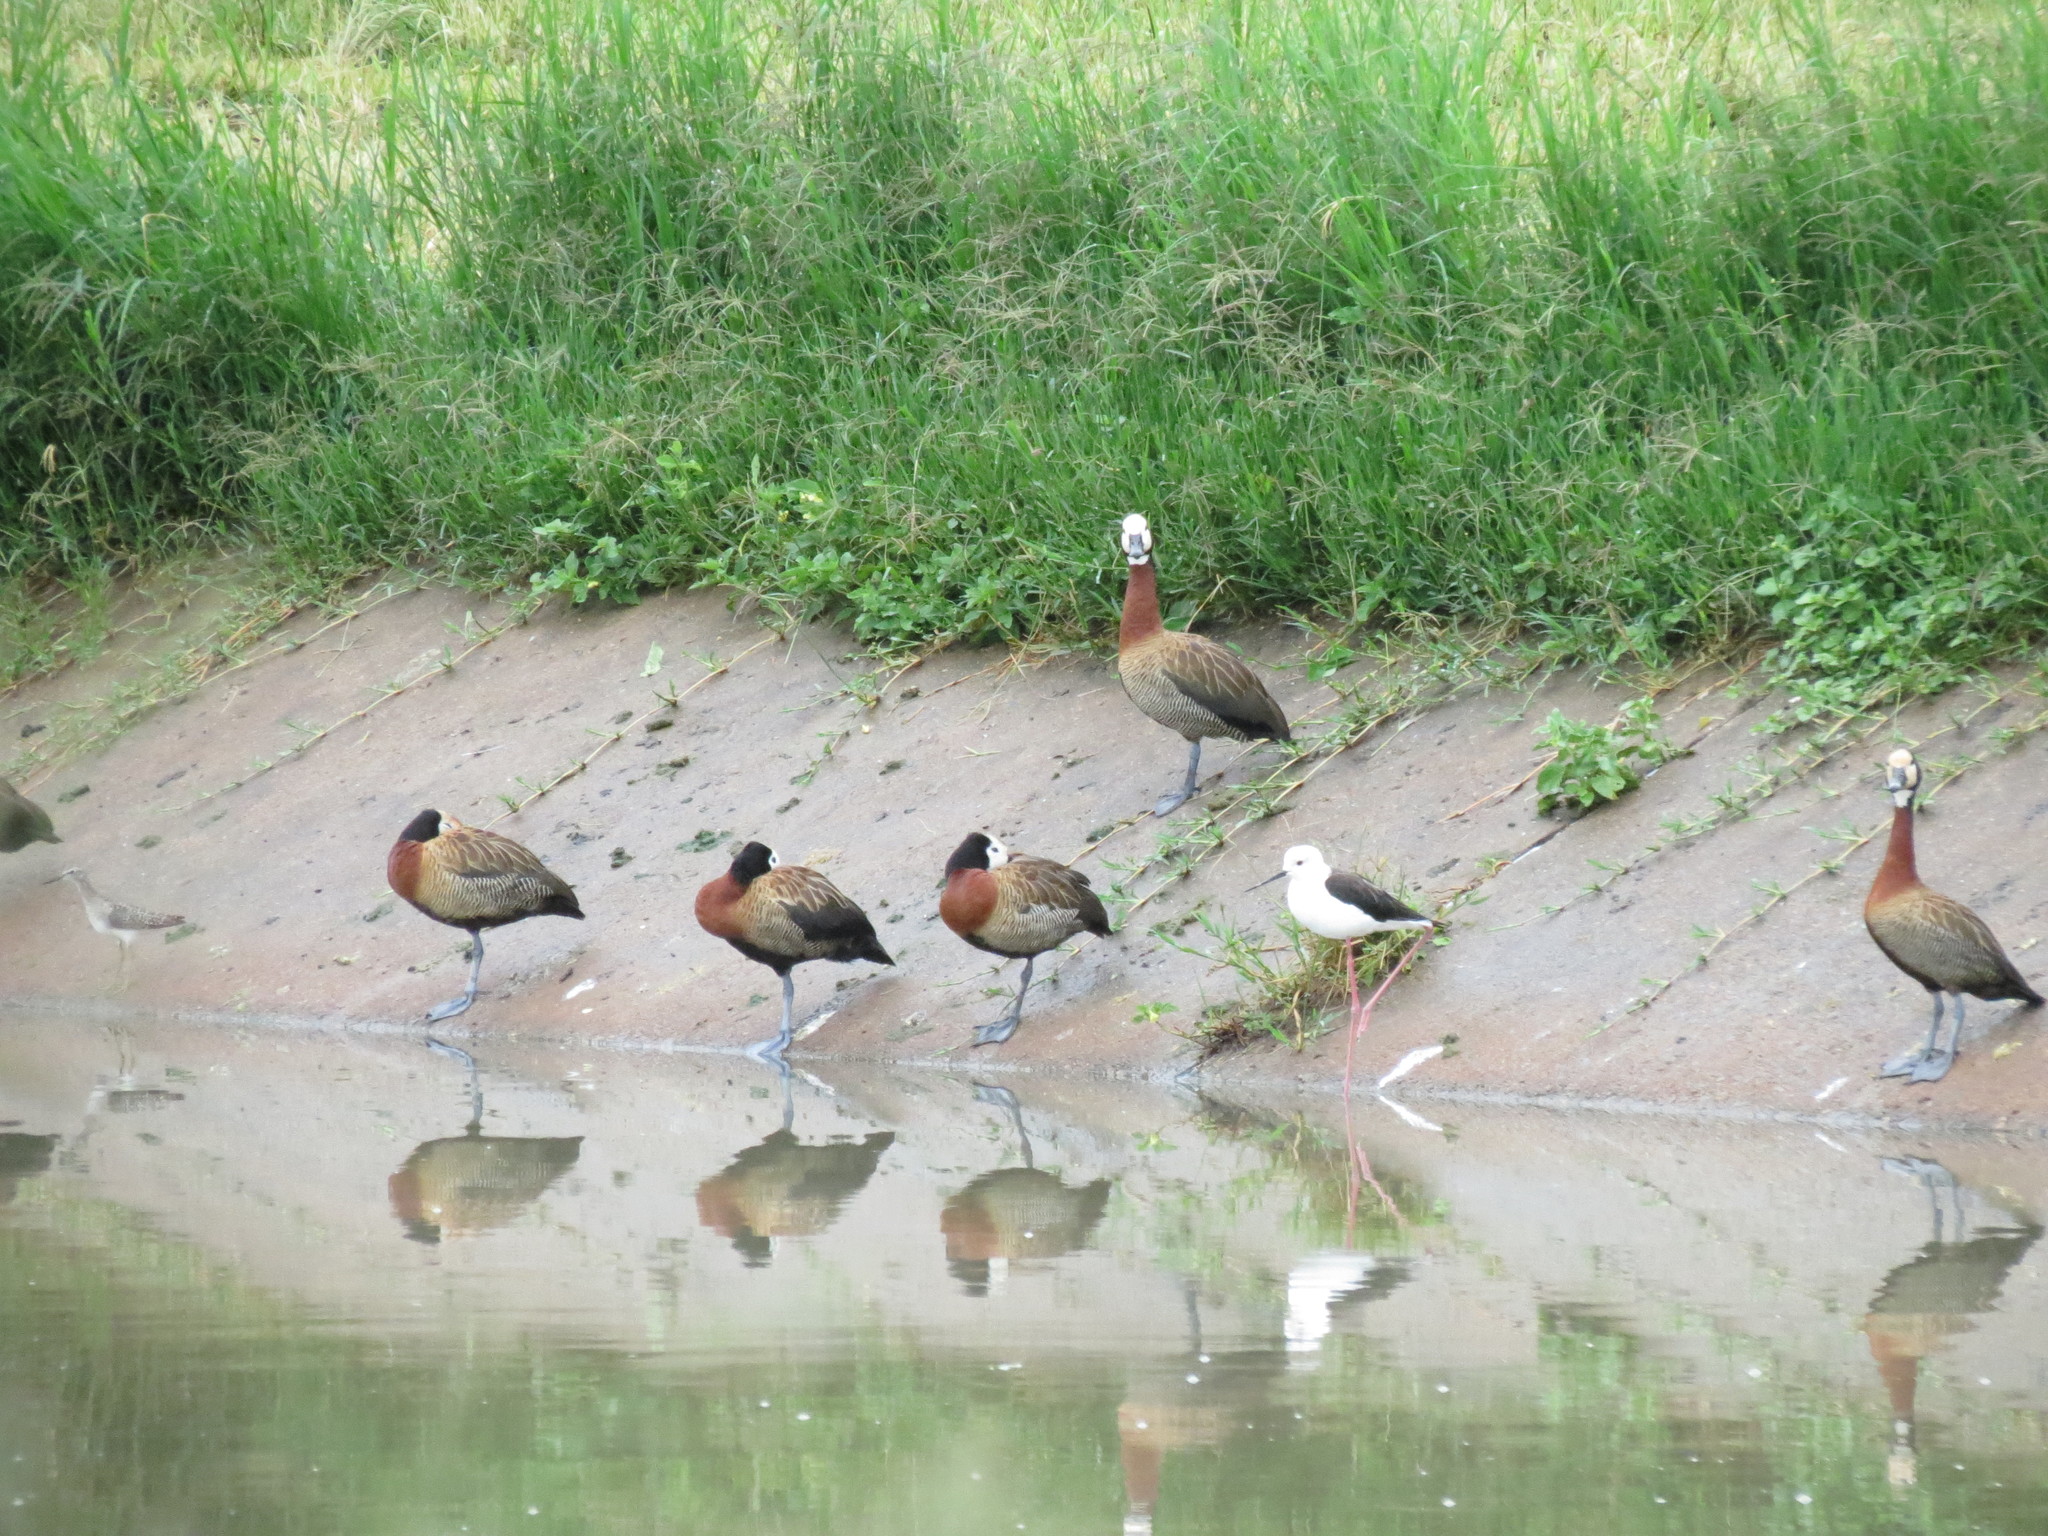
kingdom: Animalia
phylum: Chordata
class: Aves
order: Anseriformes
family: Anatidae
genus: Dendrocygna
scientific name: Dendrocygna viduata
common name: White-faced whistling duck
